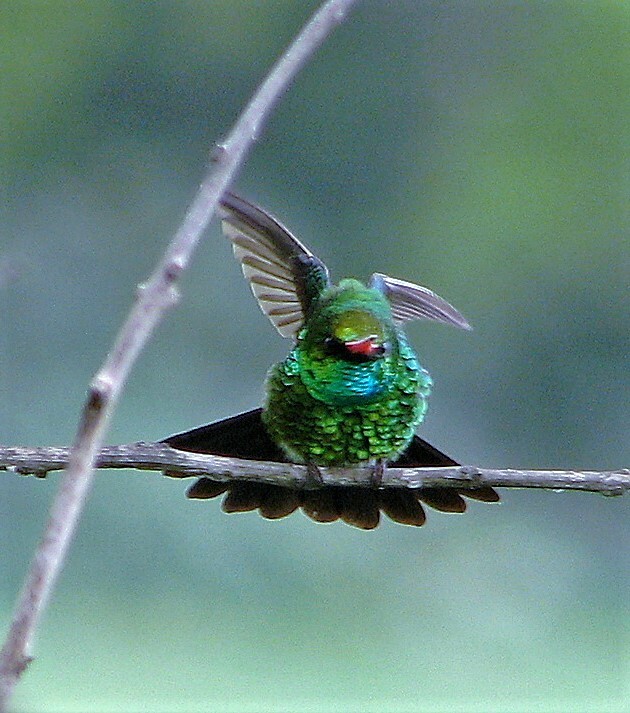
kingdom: Animalia
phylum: Chordata
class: Aves
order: Apodiformes
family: Trochilidae
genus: Chlorostilbon
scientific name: Chlorostilbon lucidus
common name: Glittering-bellied emerald
